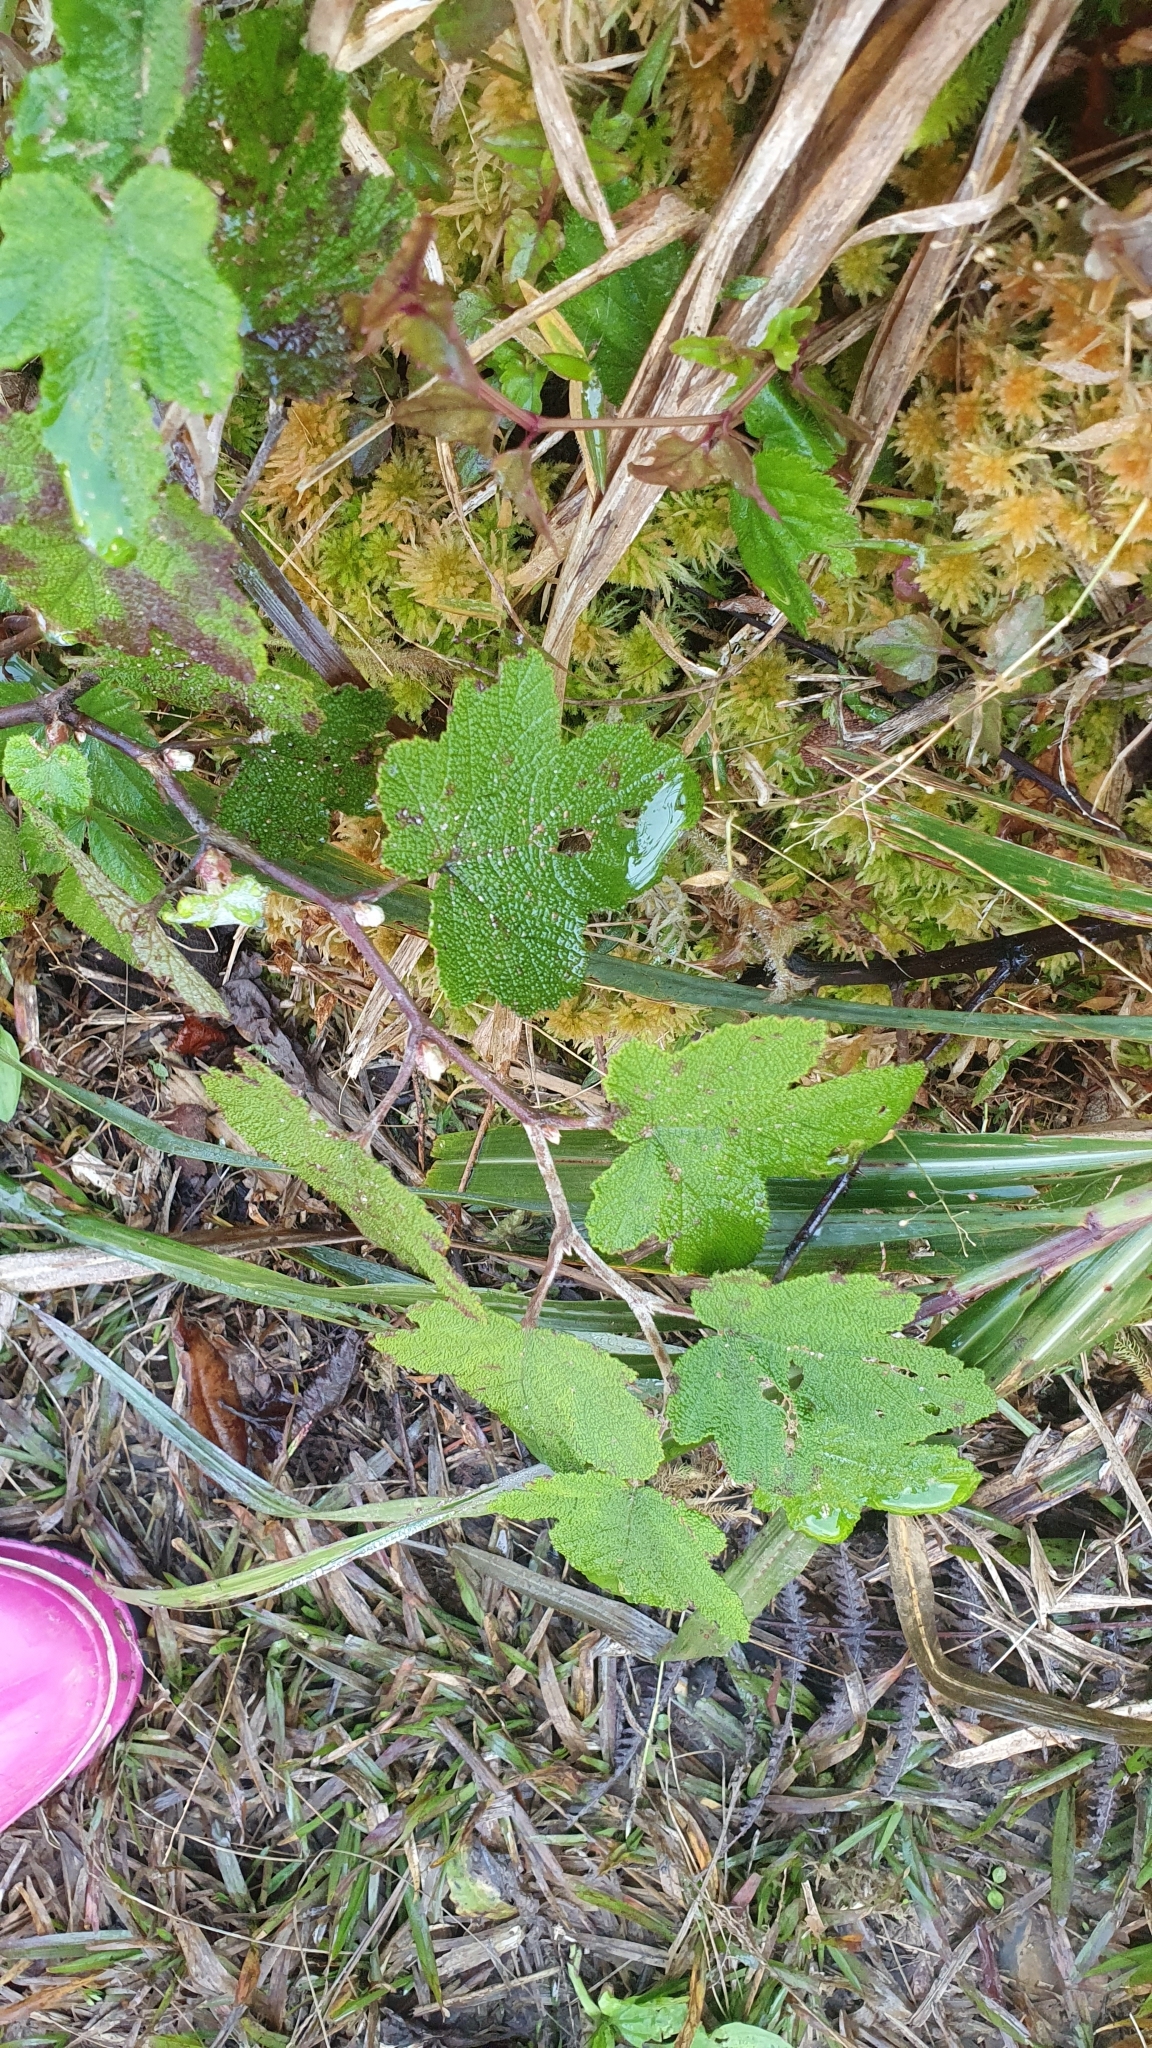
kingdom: Plantae
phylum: Tracheophyta
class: Magnoliopsida
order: Rosales
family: Rosaceae
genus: Rubus
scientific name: Rubus formosensis
